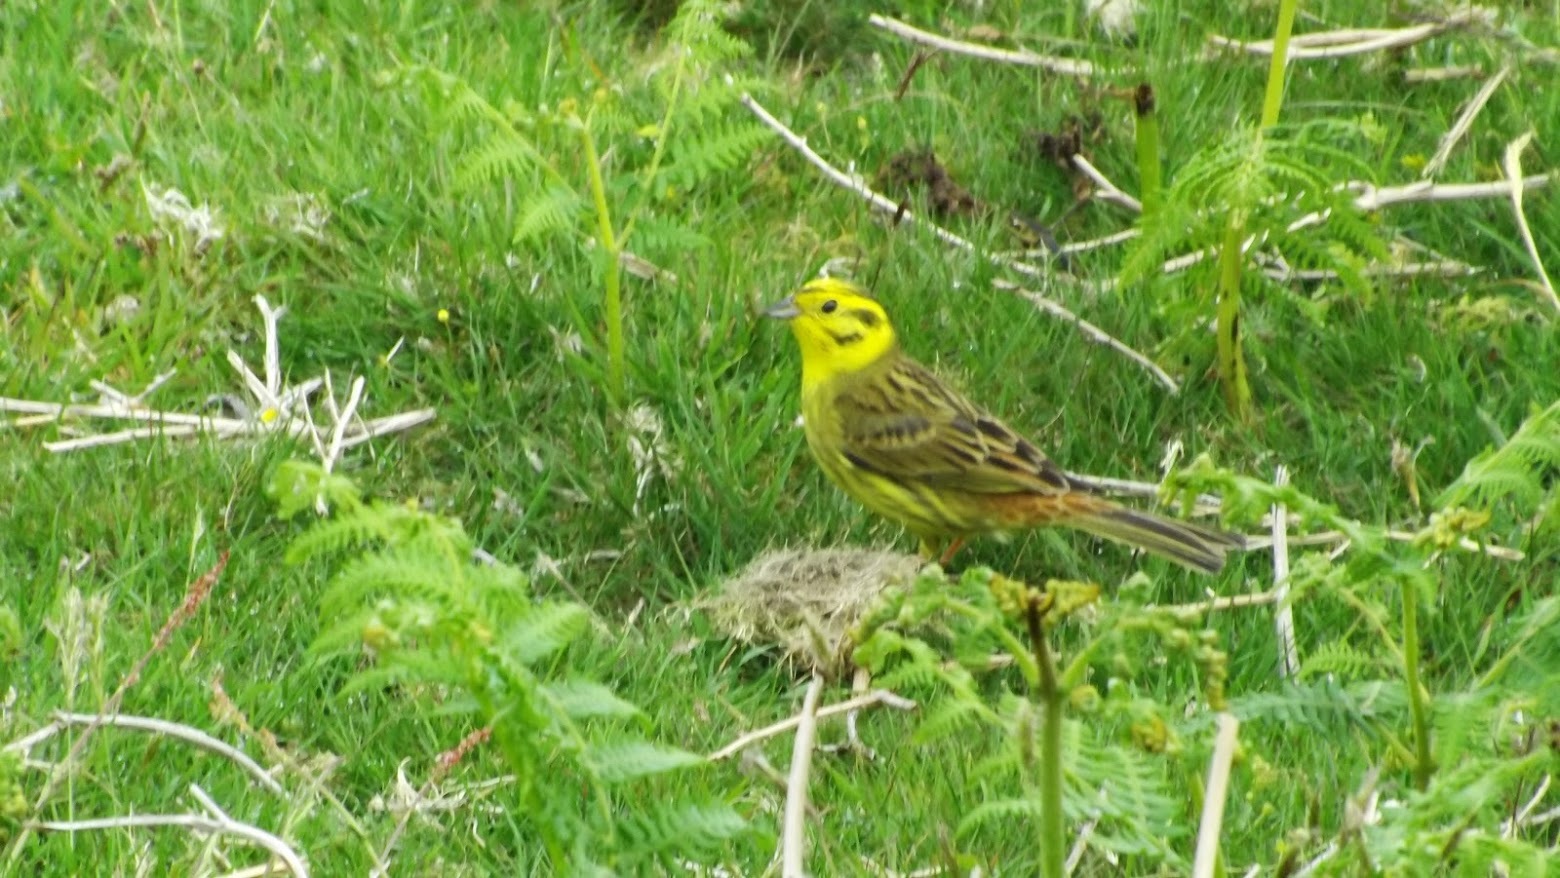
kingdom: Animalia
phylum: Chordata
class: Aves
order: Passeriformes
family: Emberizidae
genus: Emberiza
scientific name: Emberiza citrinella
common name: Yellowhammer
